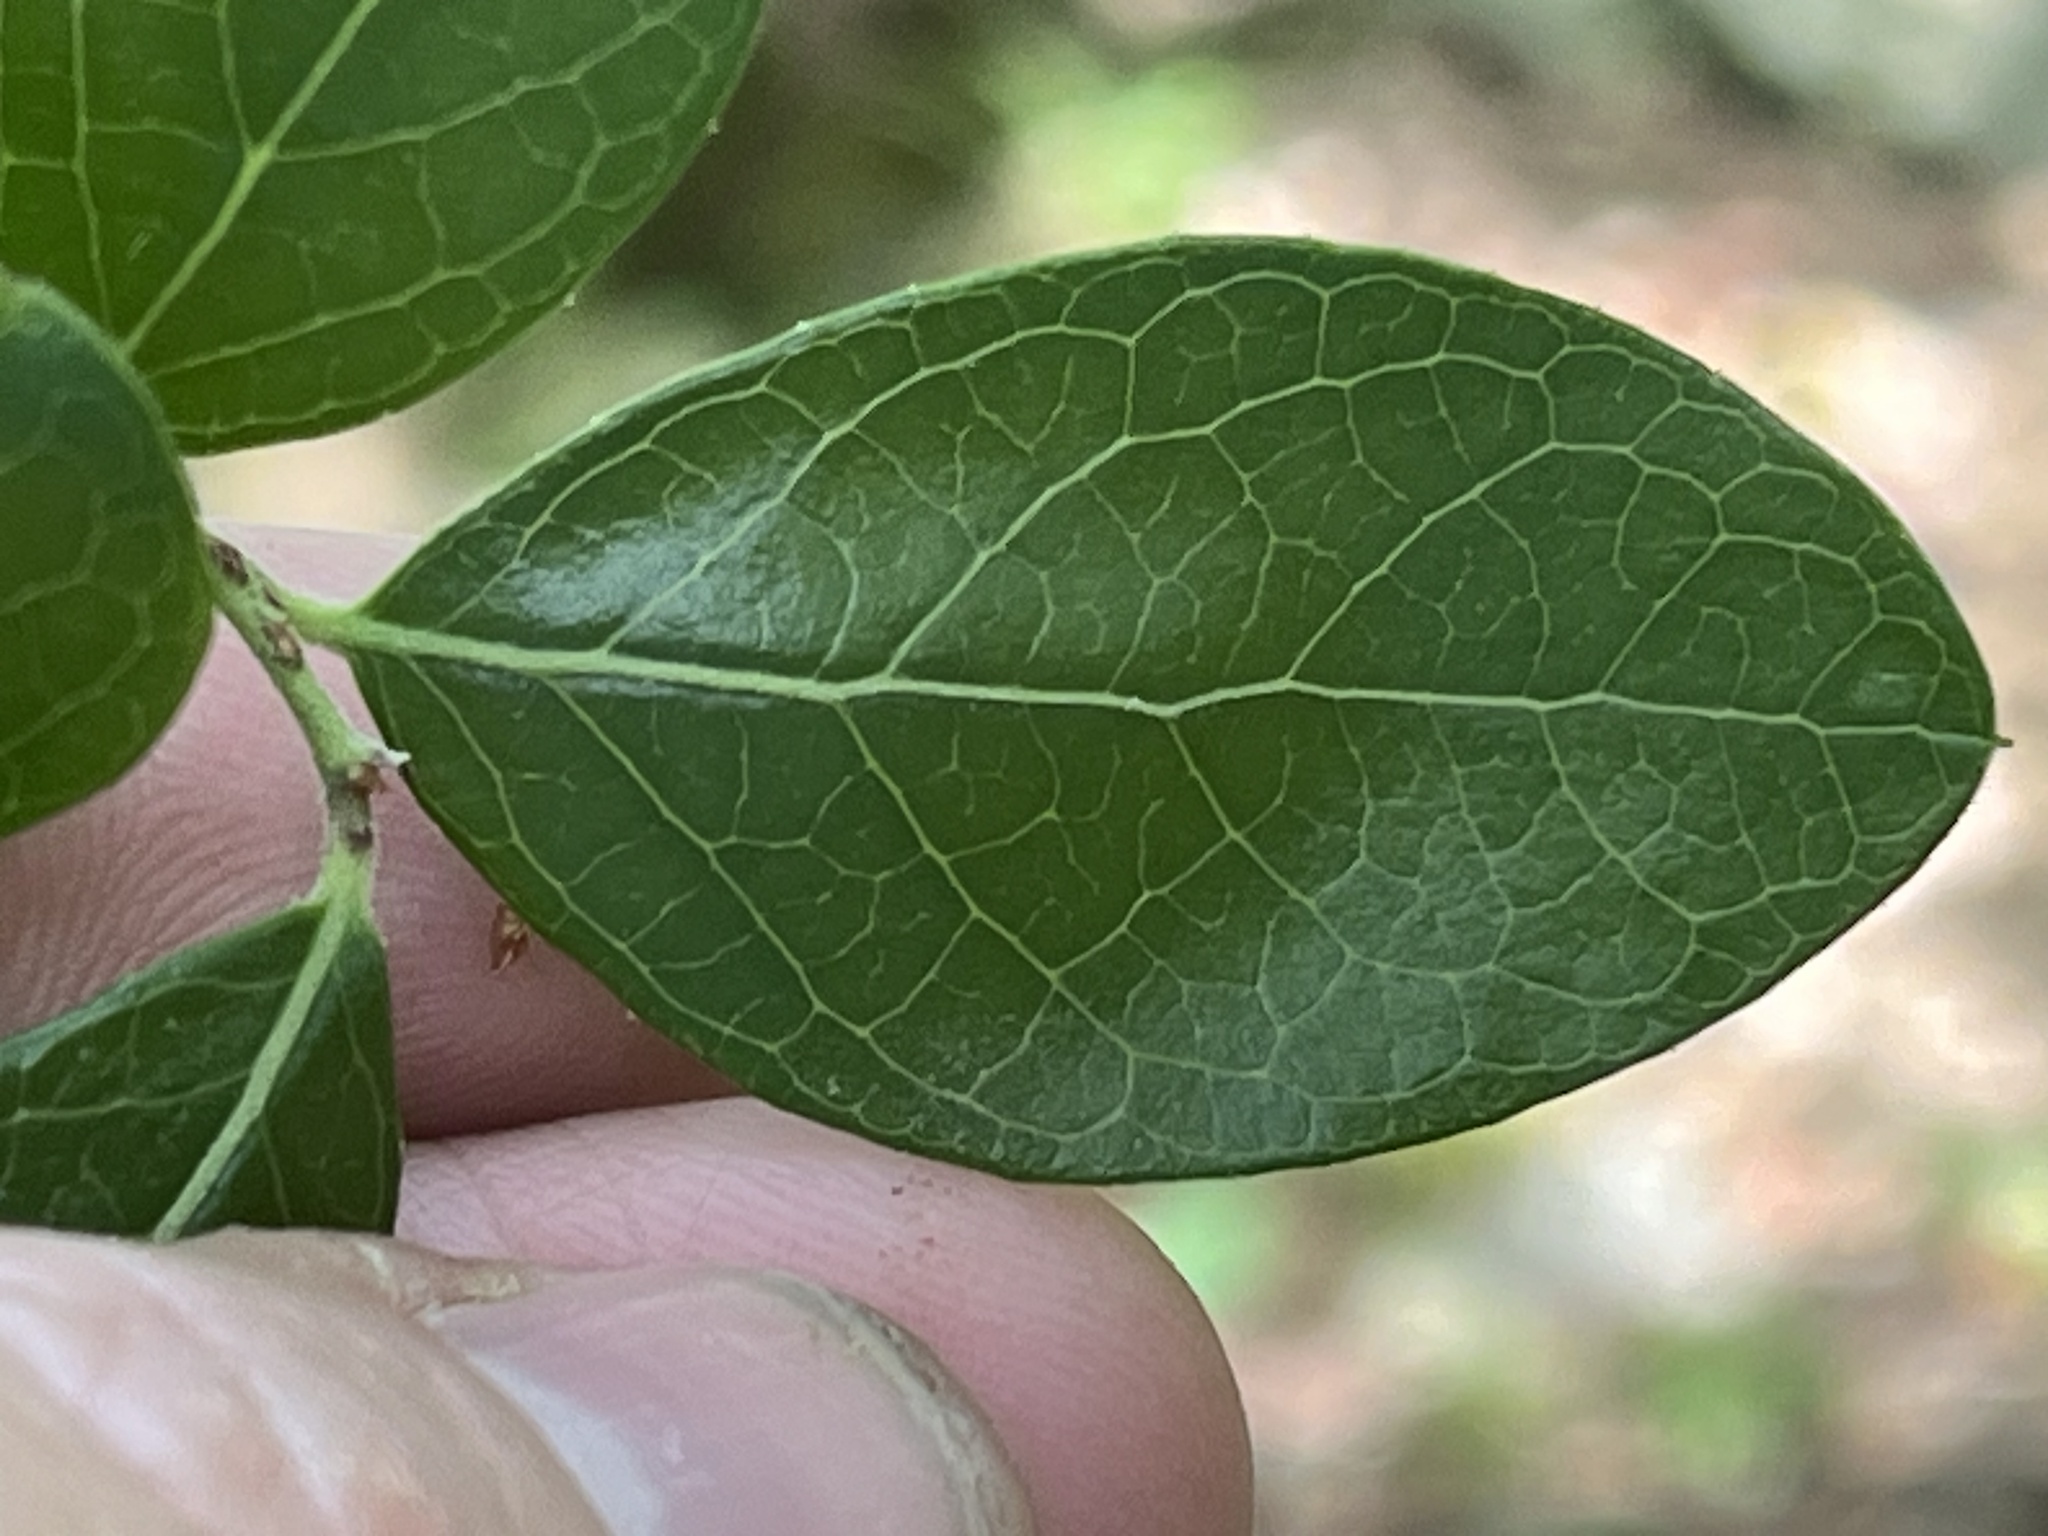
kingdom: Plantae
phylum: Tracheophyta
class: Magnoliopsida
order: Ericales
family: Ericaceae
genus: Vaccinium
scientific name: Vaccinium arboreum
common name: Farkleberry
